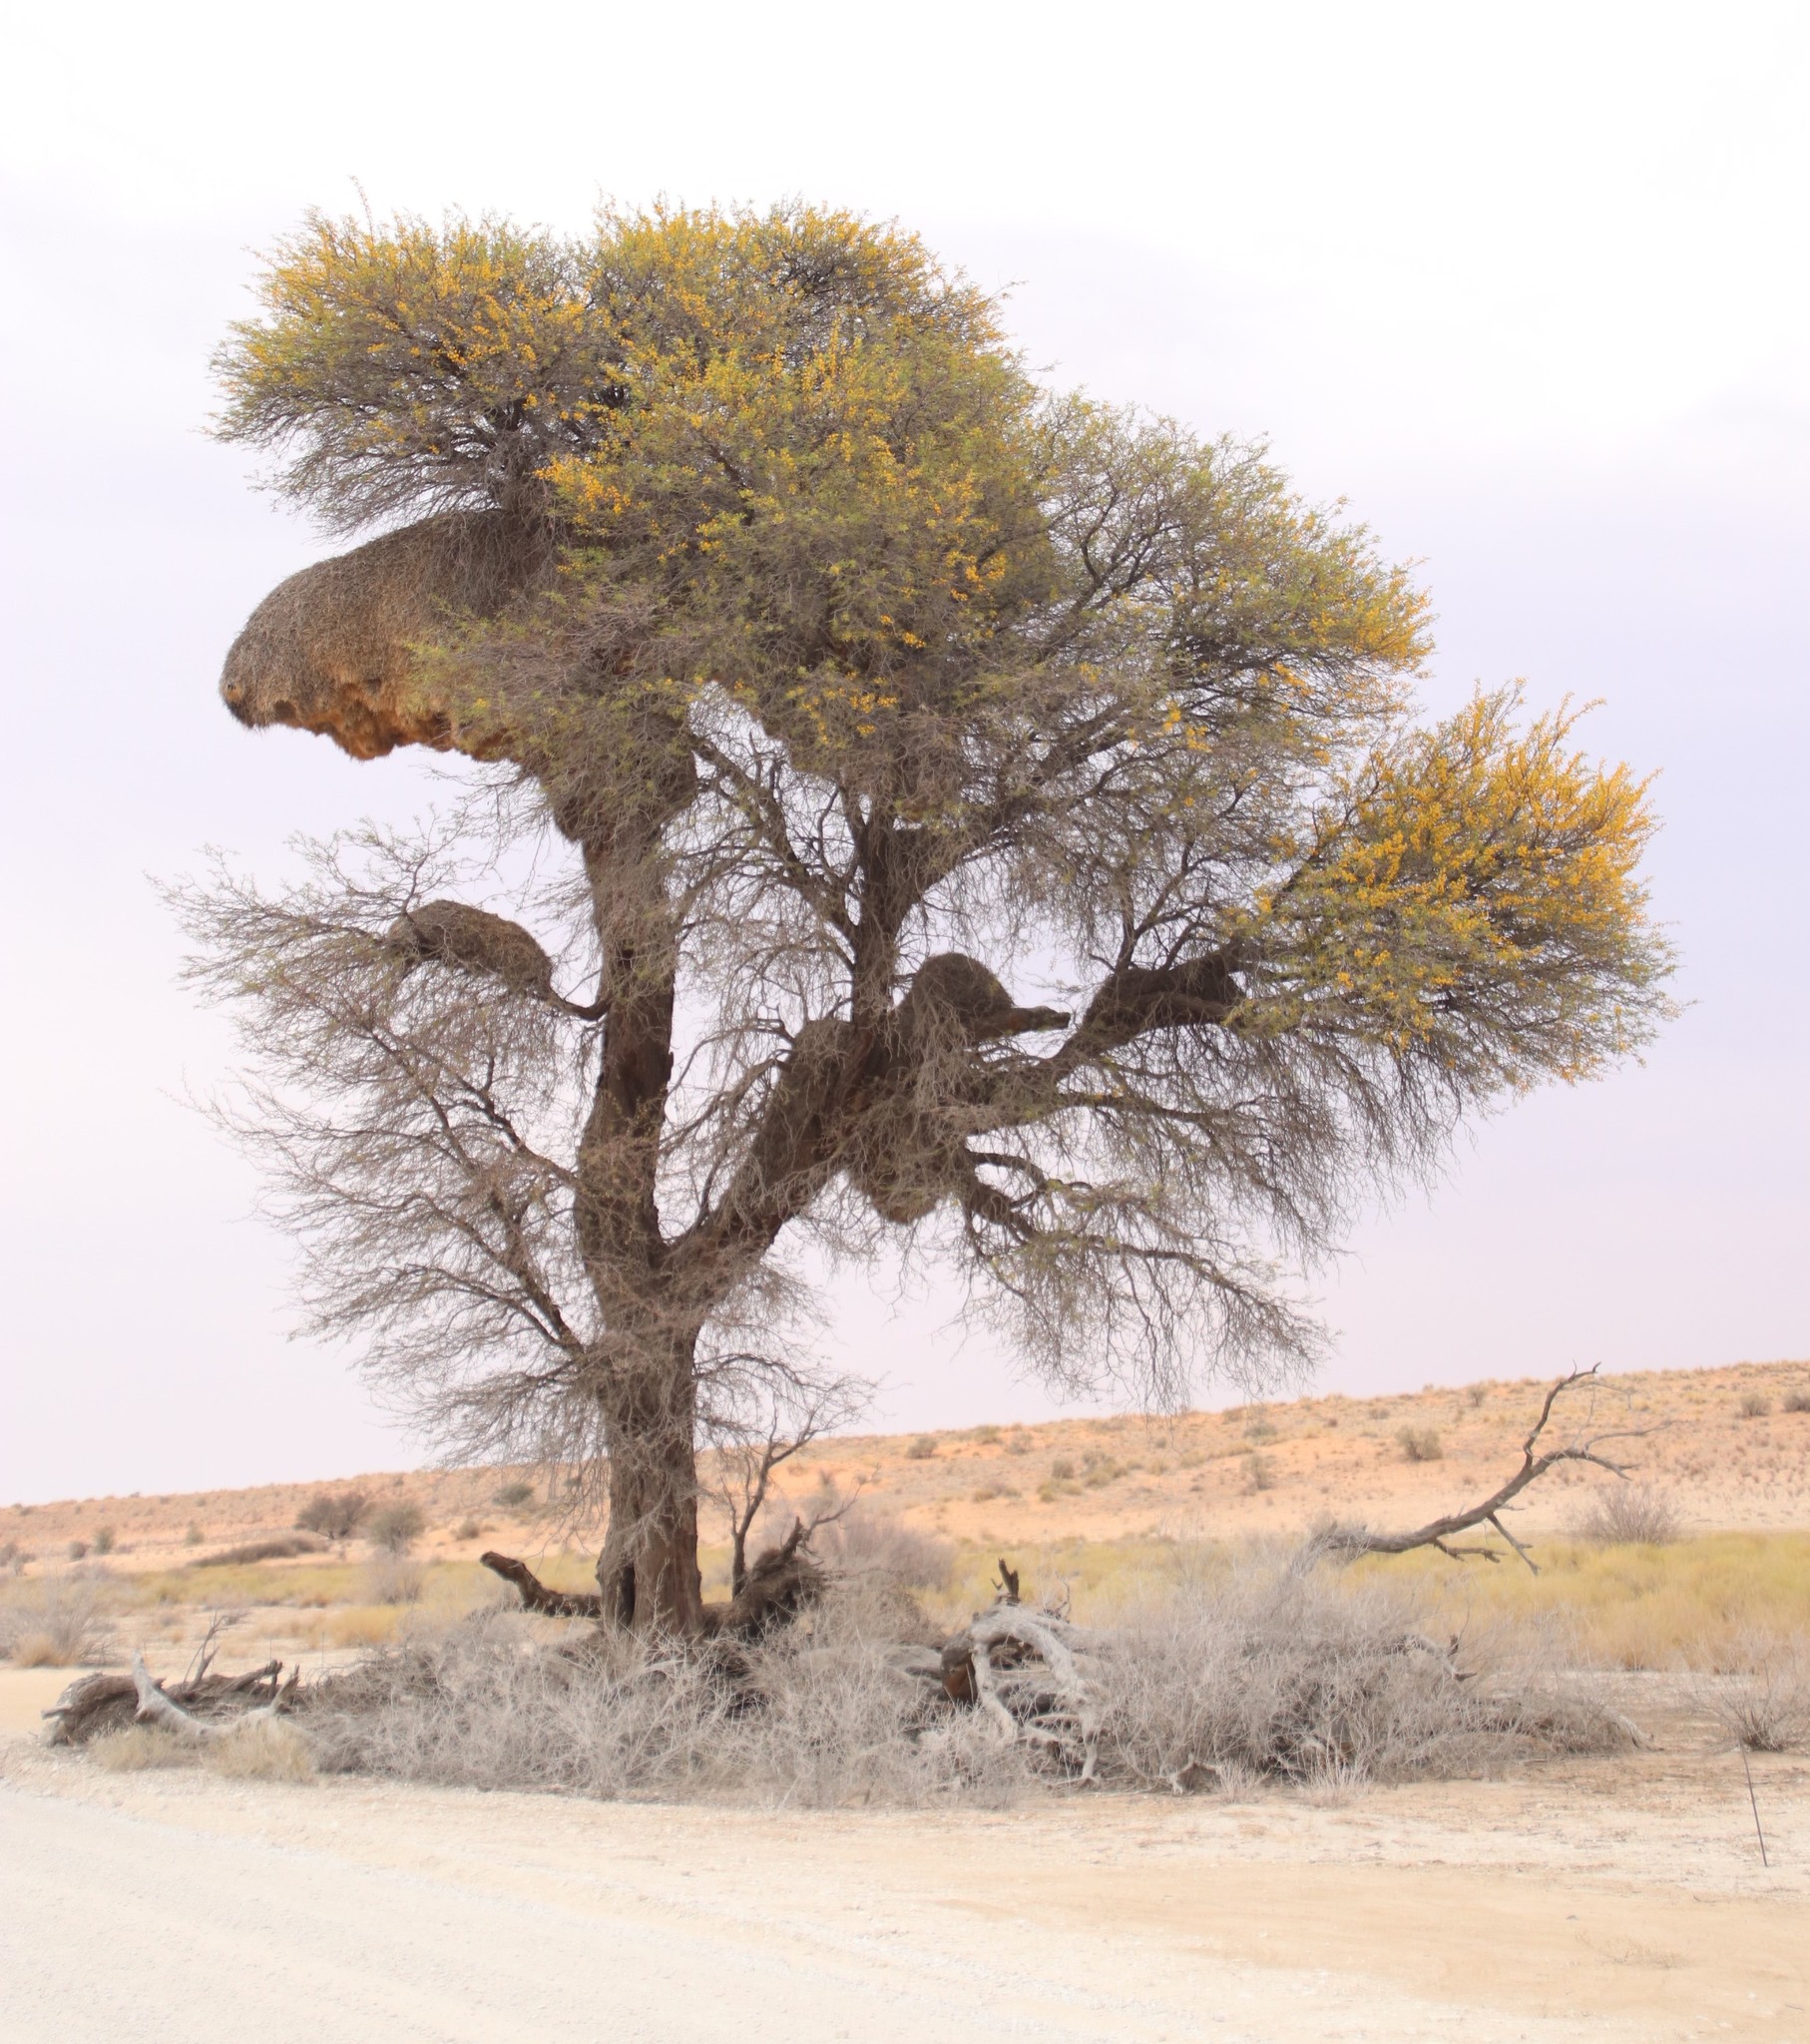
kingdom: Animalia
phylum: Chordata
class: Aves
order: Passeriformes
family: Passeridae
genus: Philetairus
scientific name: Philetairus socius
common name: Sociable weaver
